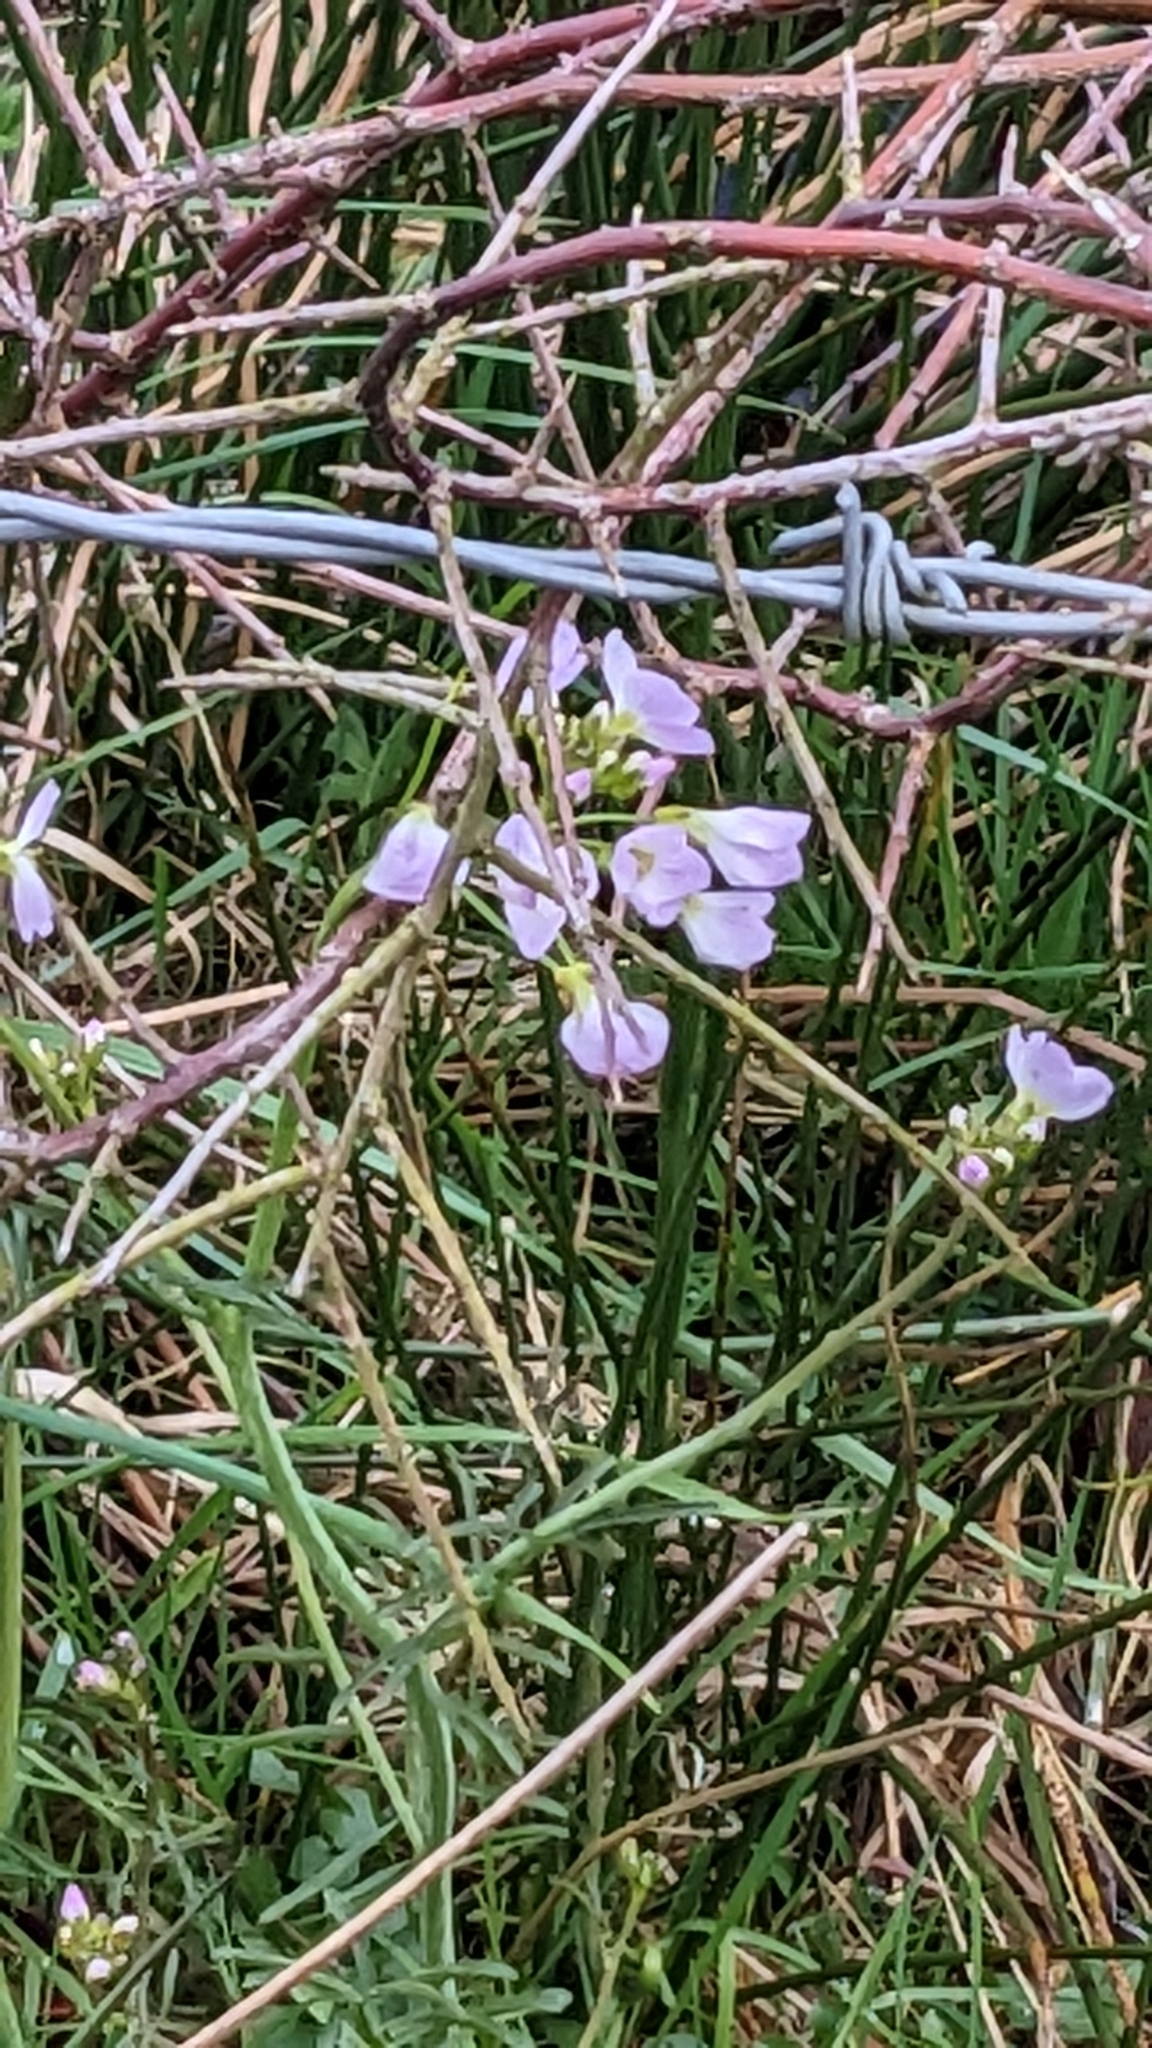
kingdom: Plantae
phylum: Tracheophyta
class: Magnoliopsida
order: Brassicales
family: Brassicaceae
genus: Cardamine
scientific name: Cardamine pratensis
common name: Cuckoo flower
